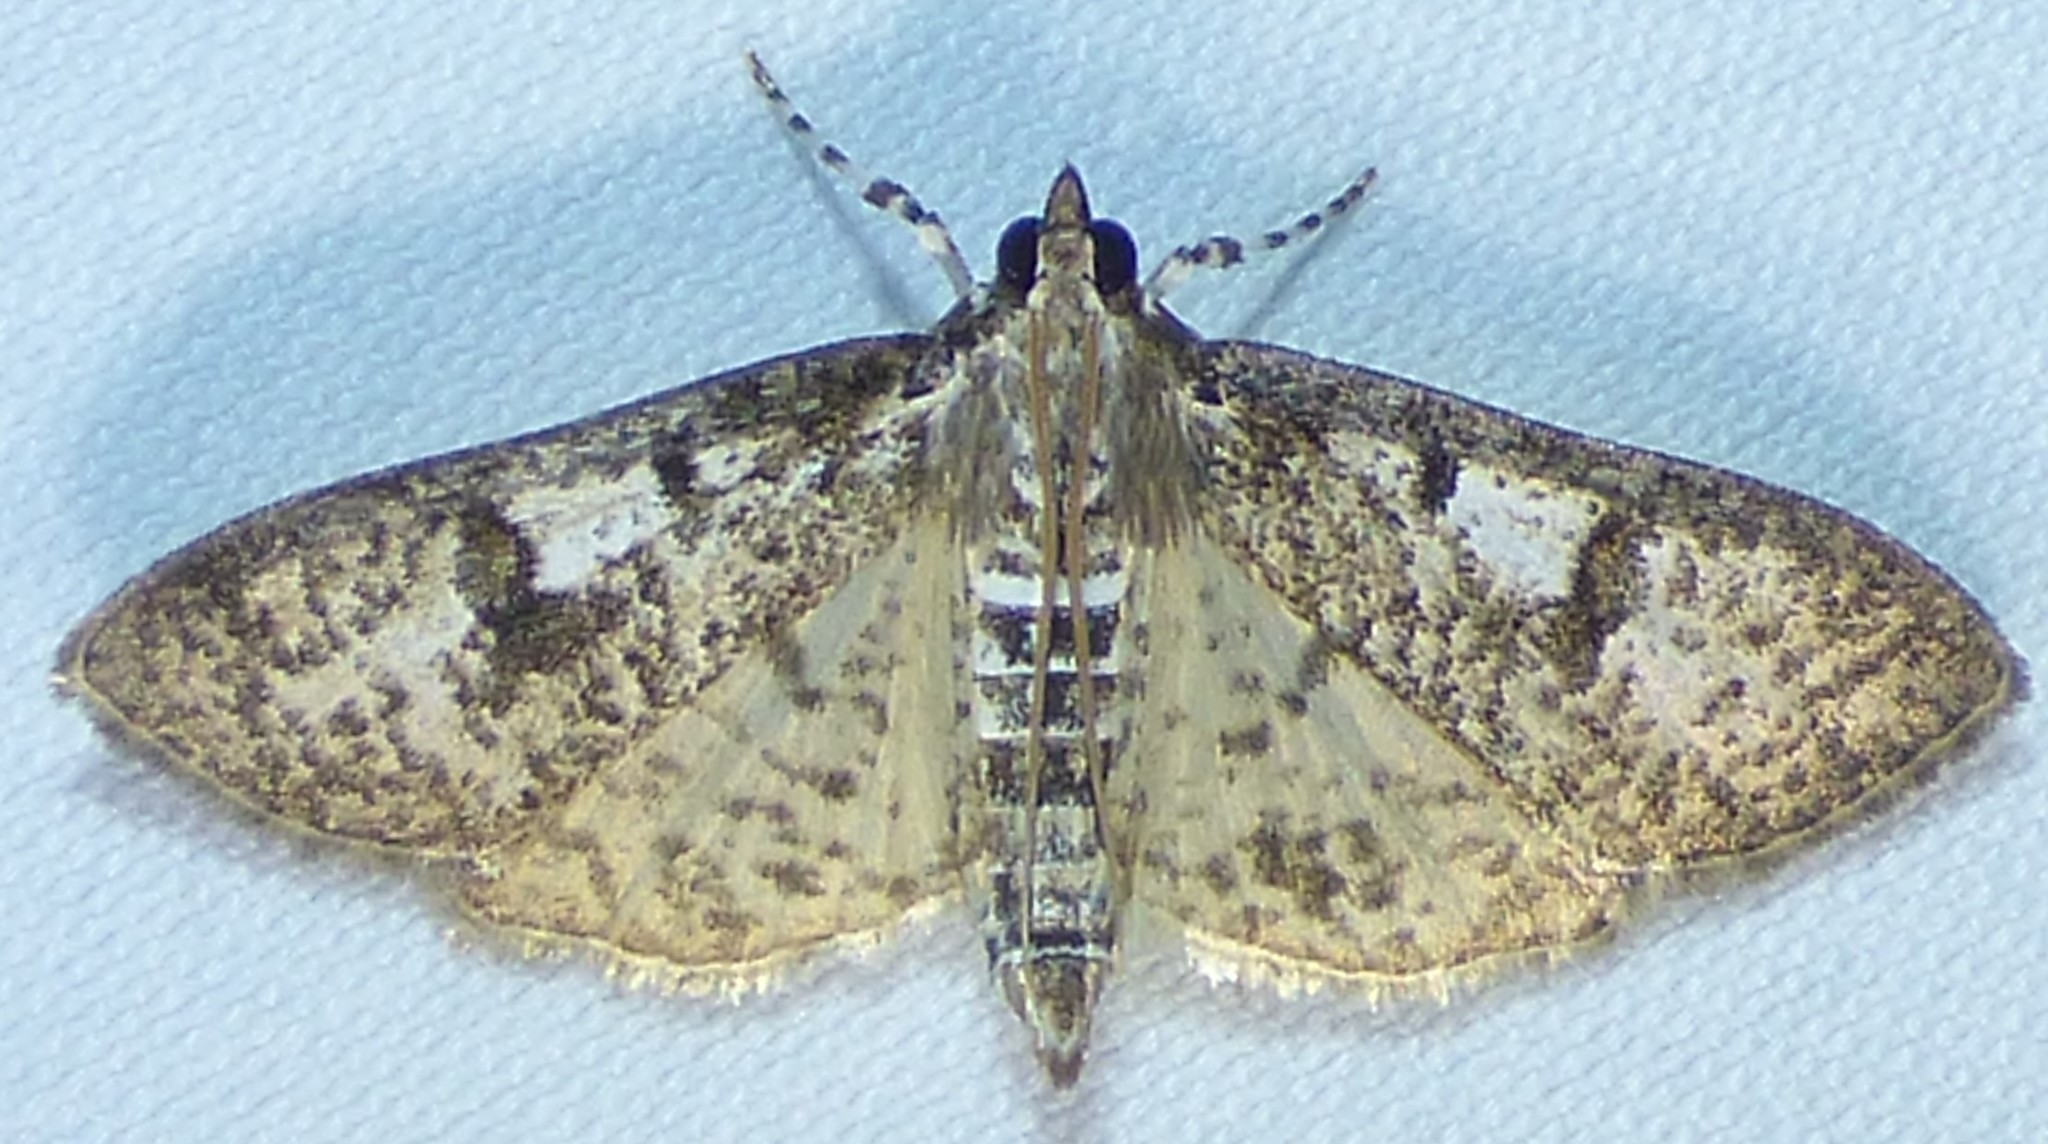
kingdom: Animalia
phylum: Arthropoda
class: Insecta
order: Lepidoptera
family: Crambidae
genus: Palpita
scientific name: Palpita magniferalis
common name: Splendid palpita moth
